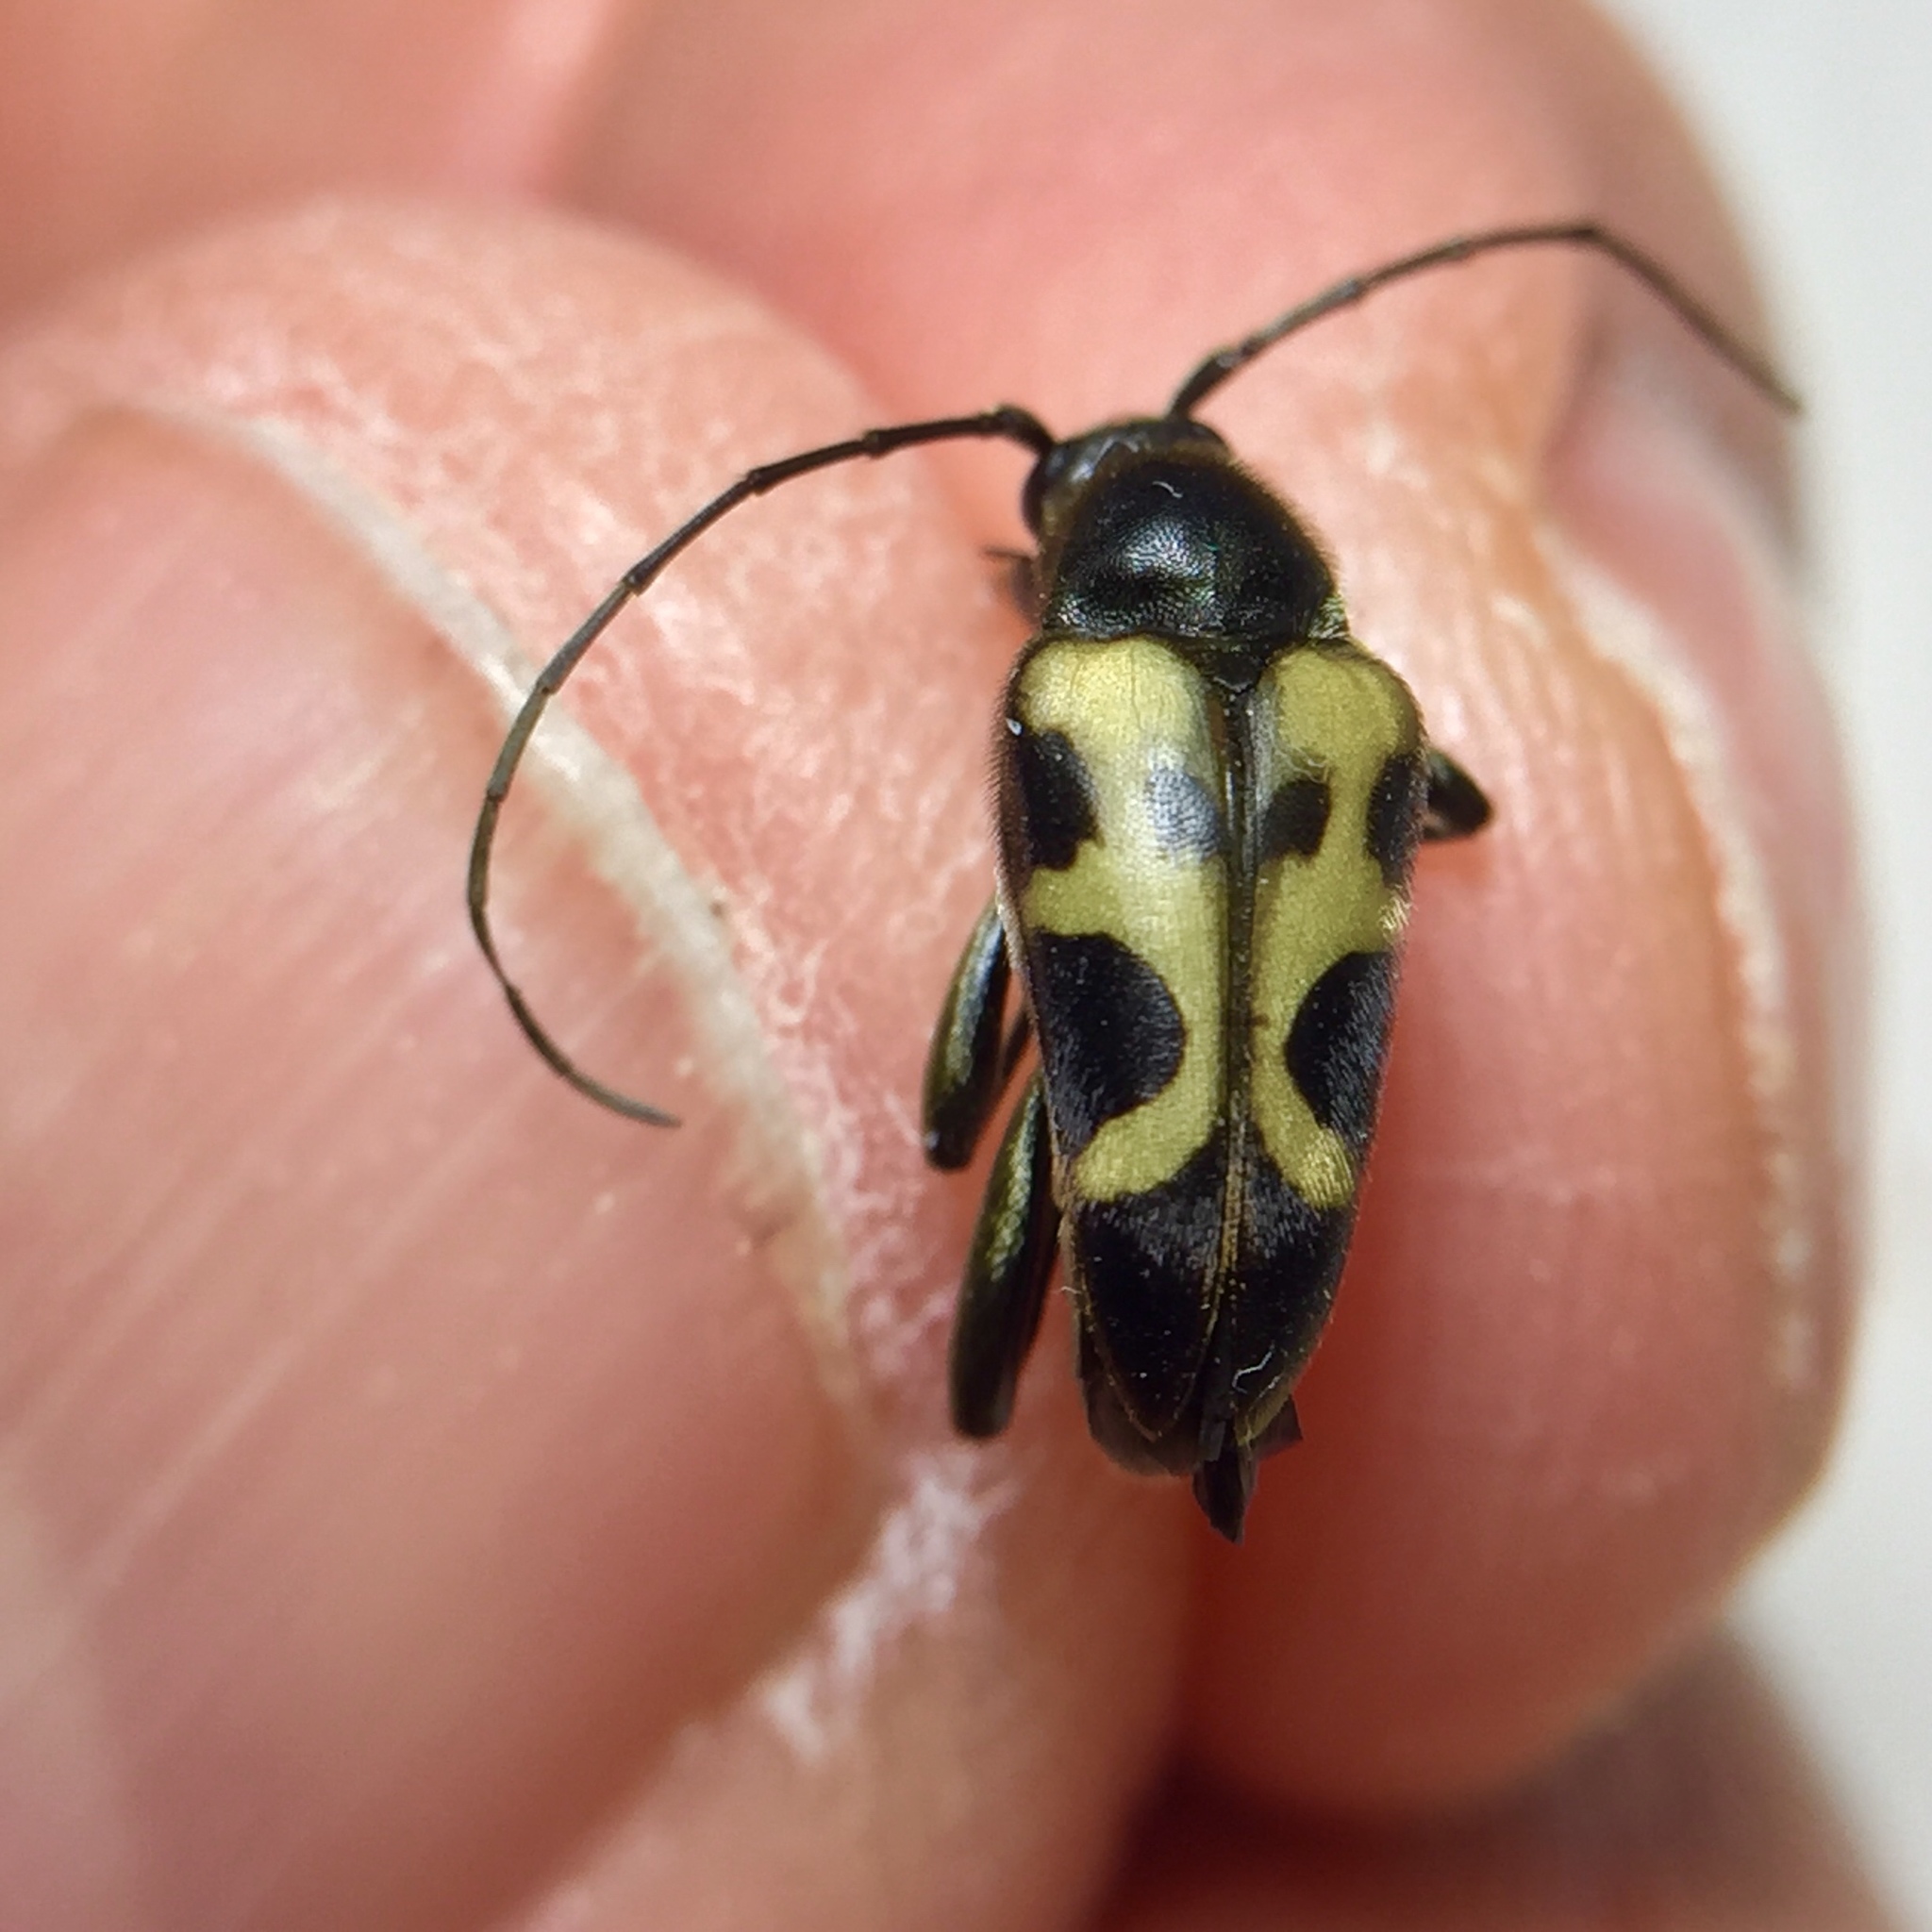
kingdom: Animalia
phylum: Arthropoda
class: Insecta
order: Coleoptera
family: Cerambycidae
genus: Judolia
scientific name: Judolia cordifera
